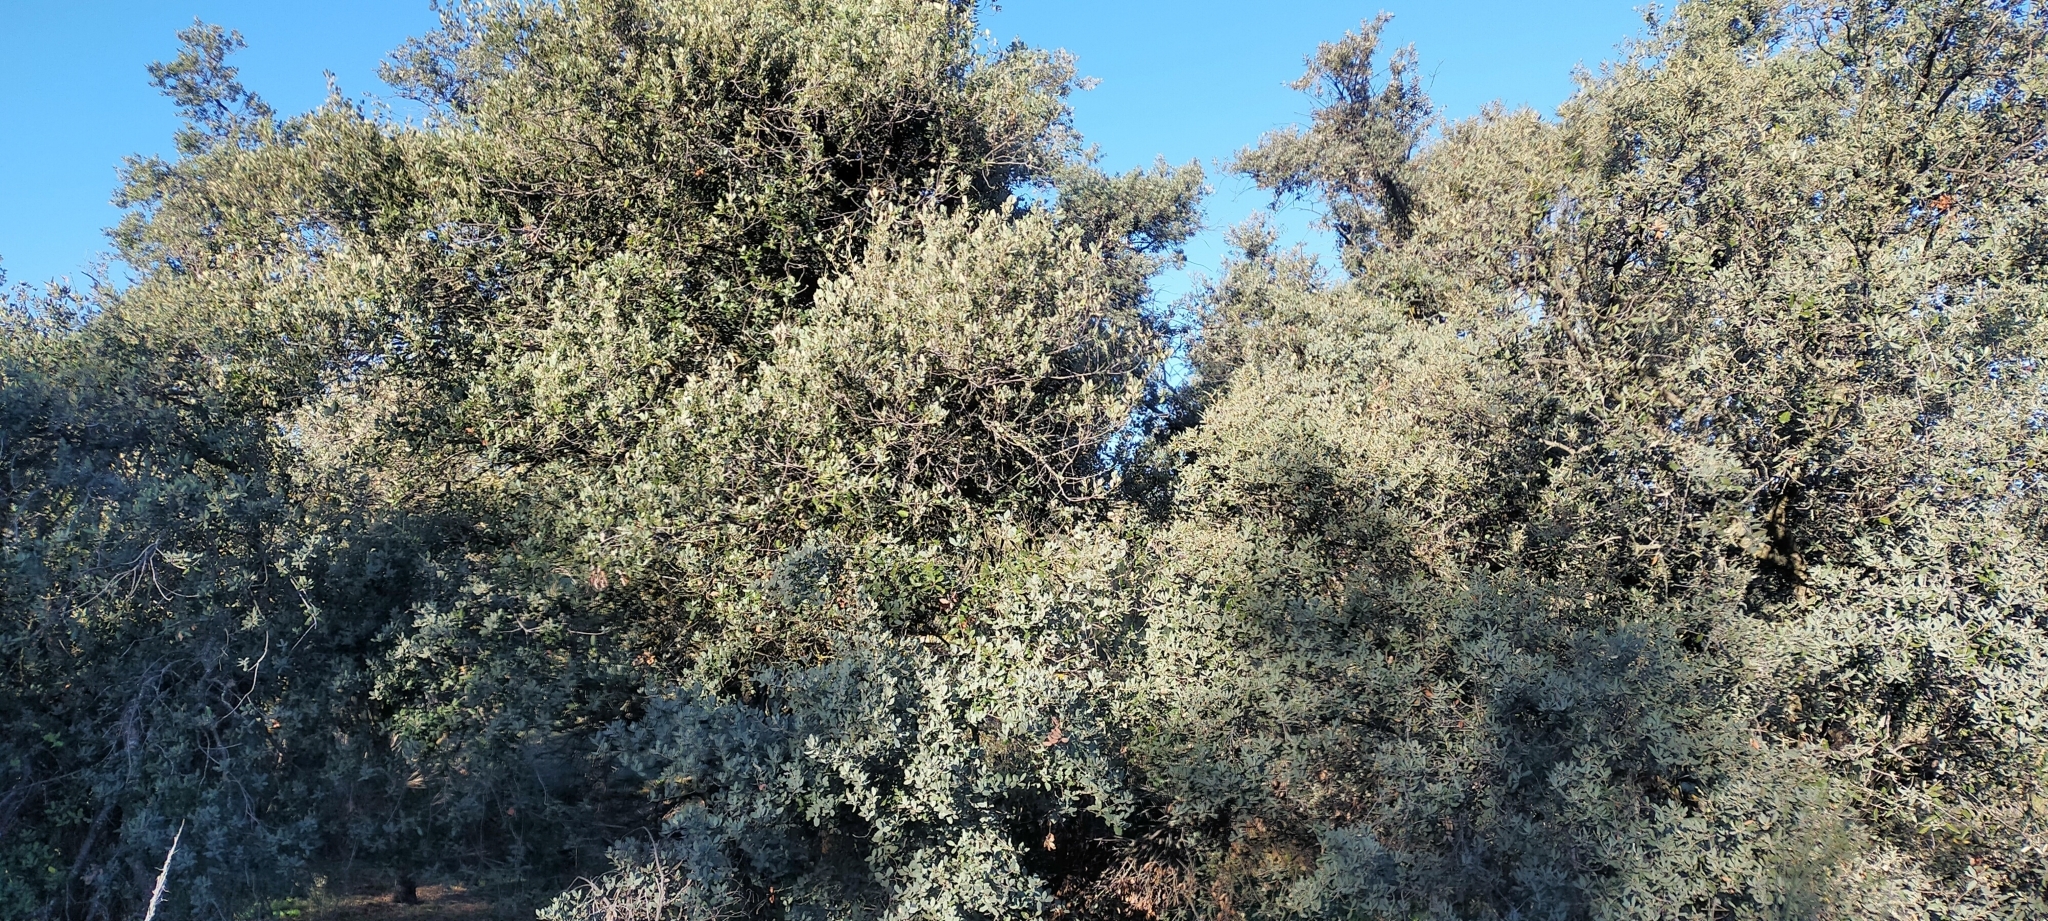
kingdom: Plantae
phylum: Tracheophyta
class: Magnoliopsida
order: Fagales
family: Fagaceae
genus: Quercus
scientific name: Quercus rotundifolia
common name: Holm oak
